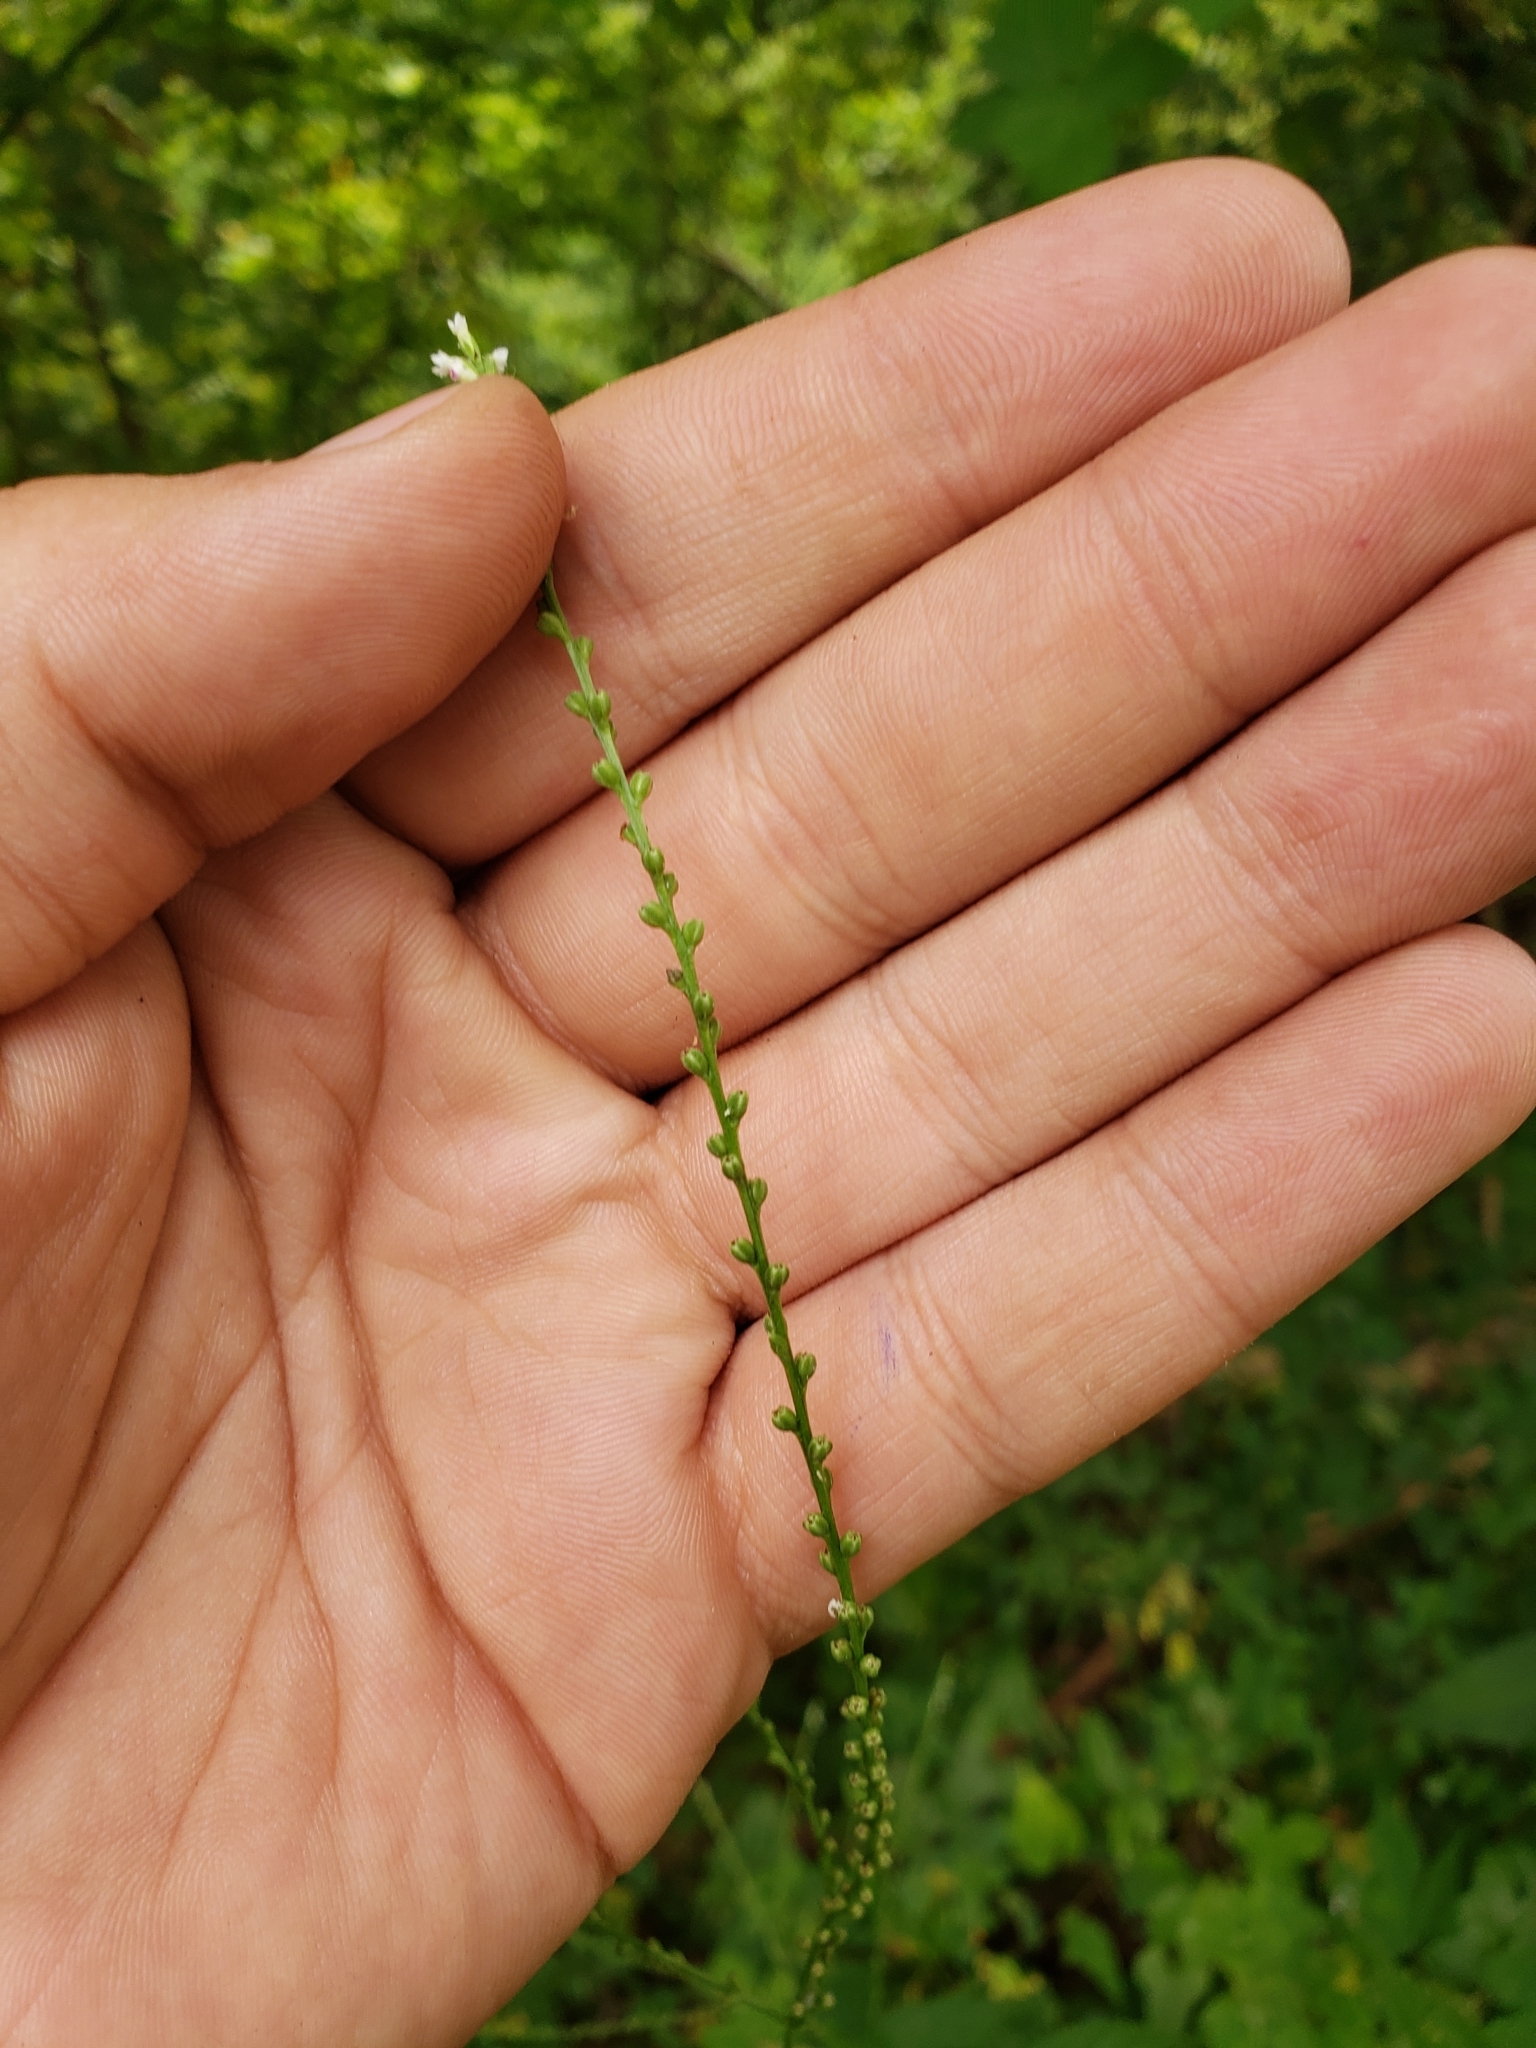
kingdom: Plantae
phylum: Tracheophyta
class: Magnoliopsida
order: Lamiales
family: Verbenaceae
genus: Verbena
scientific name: Verbena urticifolia
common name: Nettle-leaved vervain
